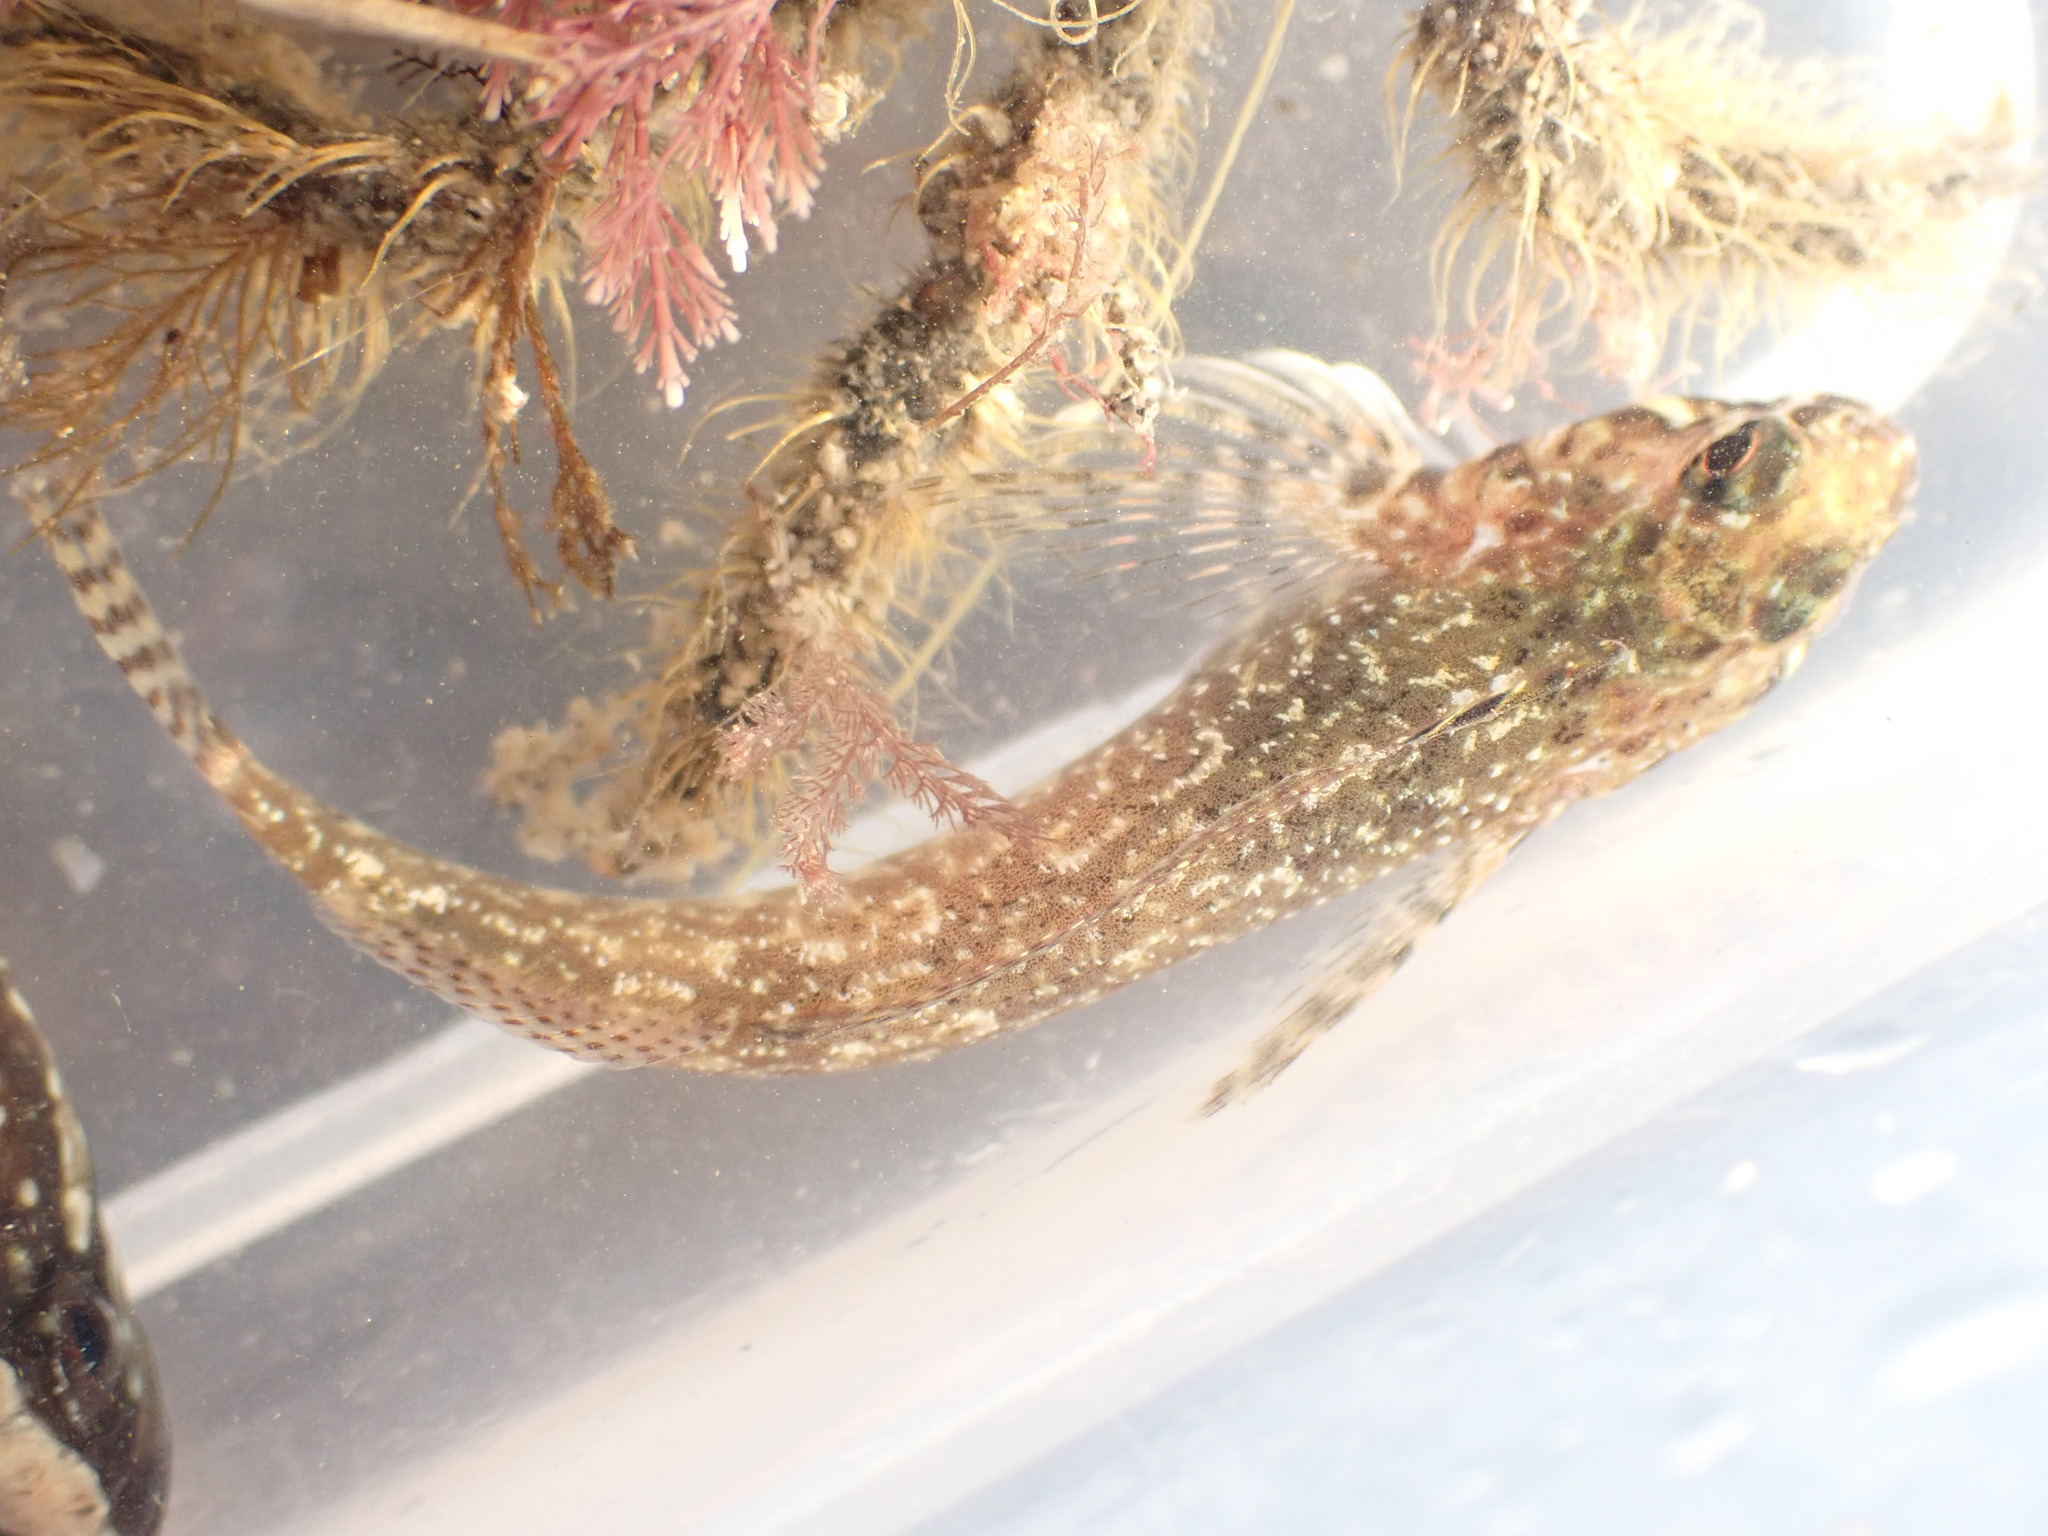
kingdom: Animalia
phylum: Chordata
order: Perciformes
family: Tripterygiidae
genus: Bellapiscis
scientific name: Bellapiscis lesleyae
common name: Mottled twister
